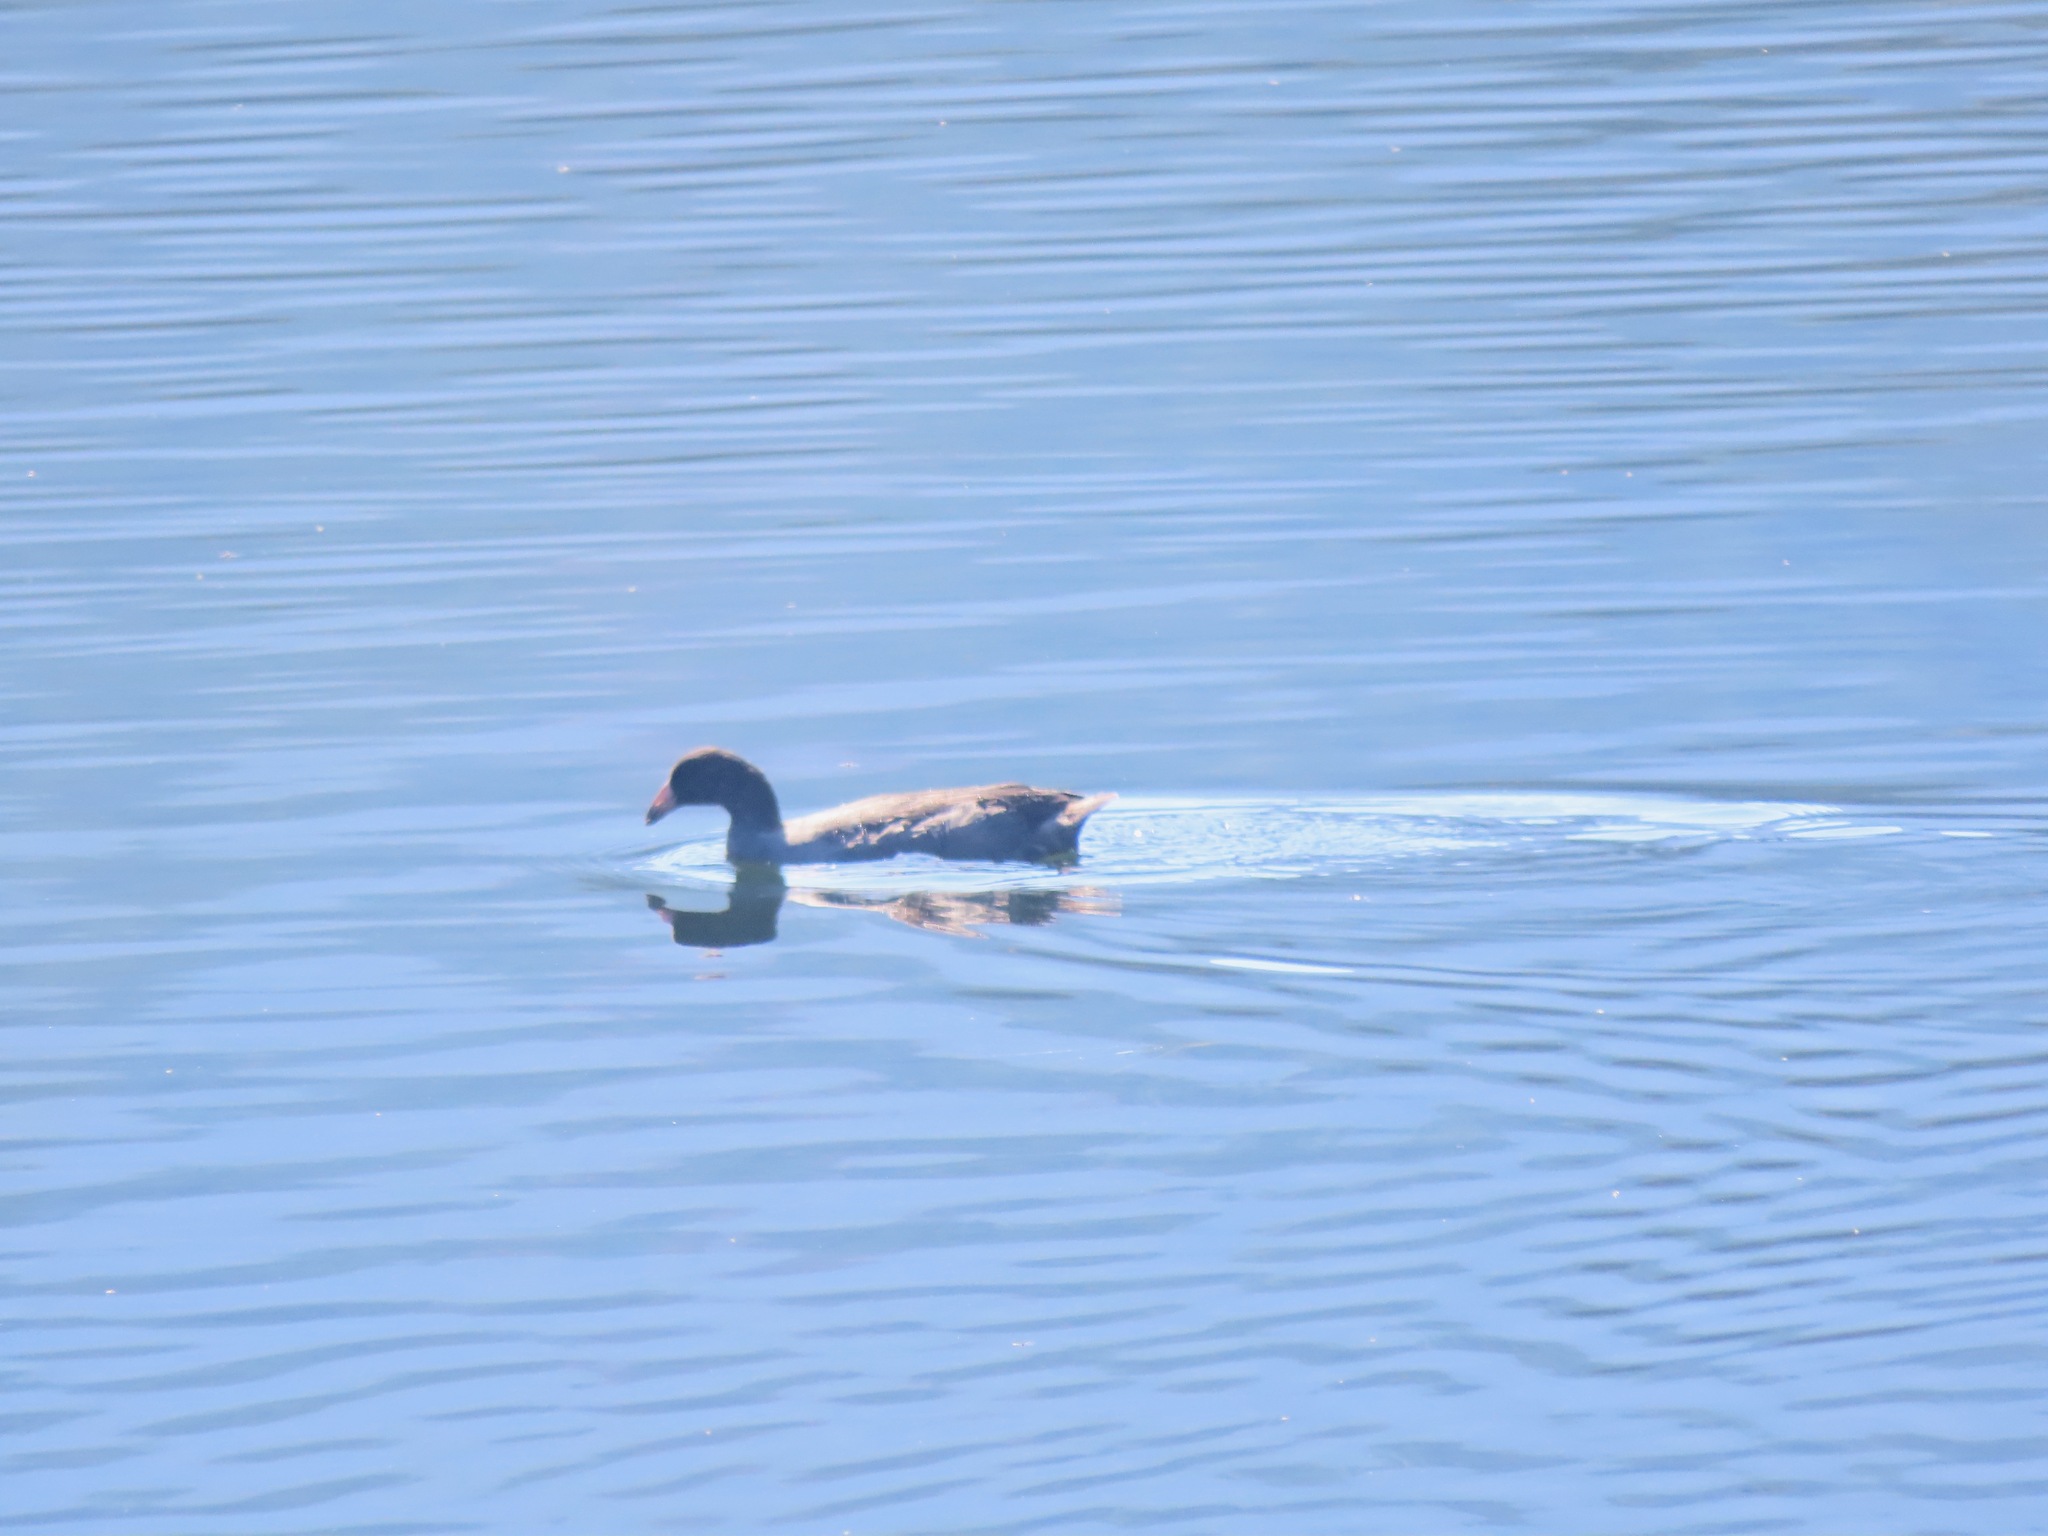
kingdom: Animalia
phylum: Chordata
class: Aves
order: Gruiformes
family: Rallidae
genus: Fulica
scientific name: Fulica americana
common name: American coot
